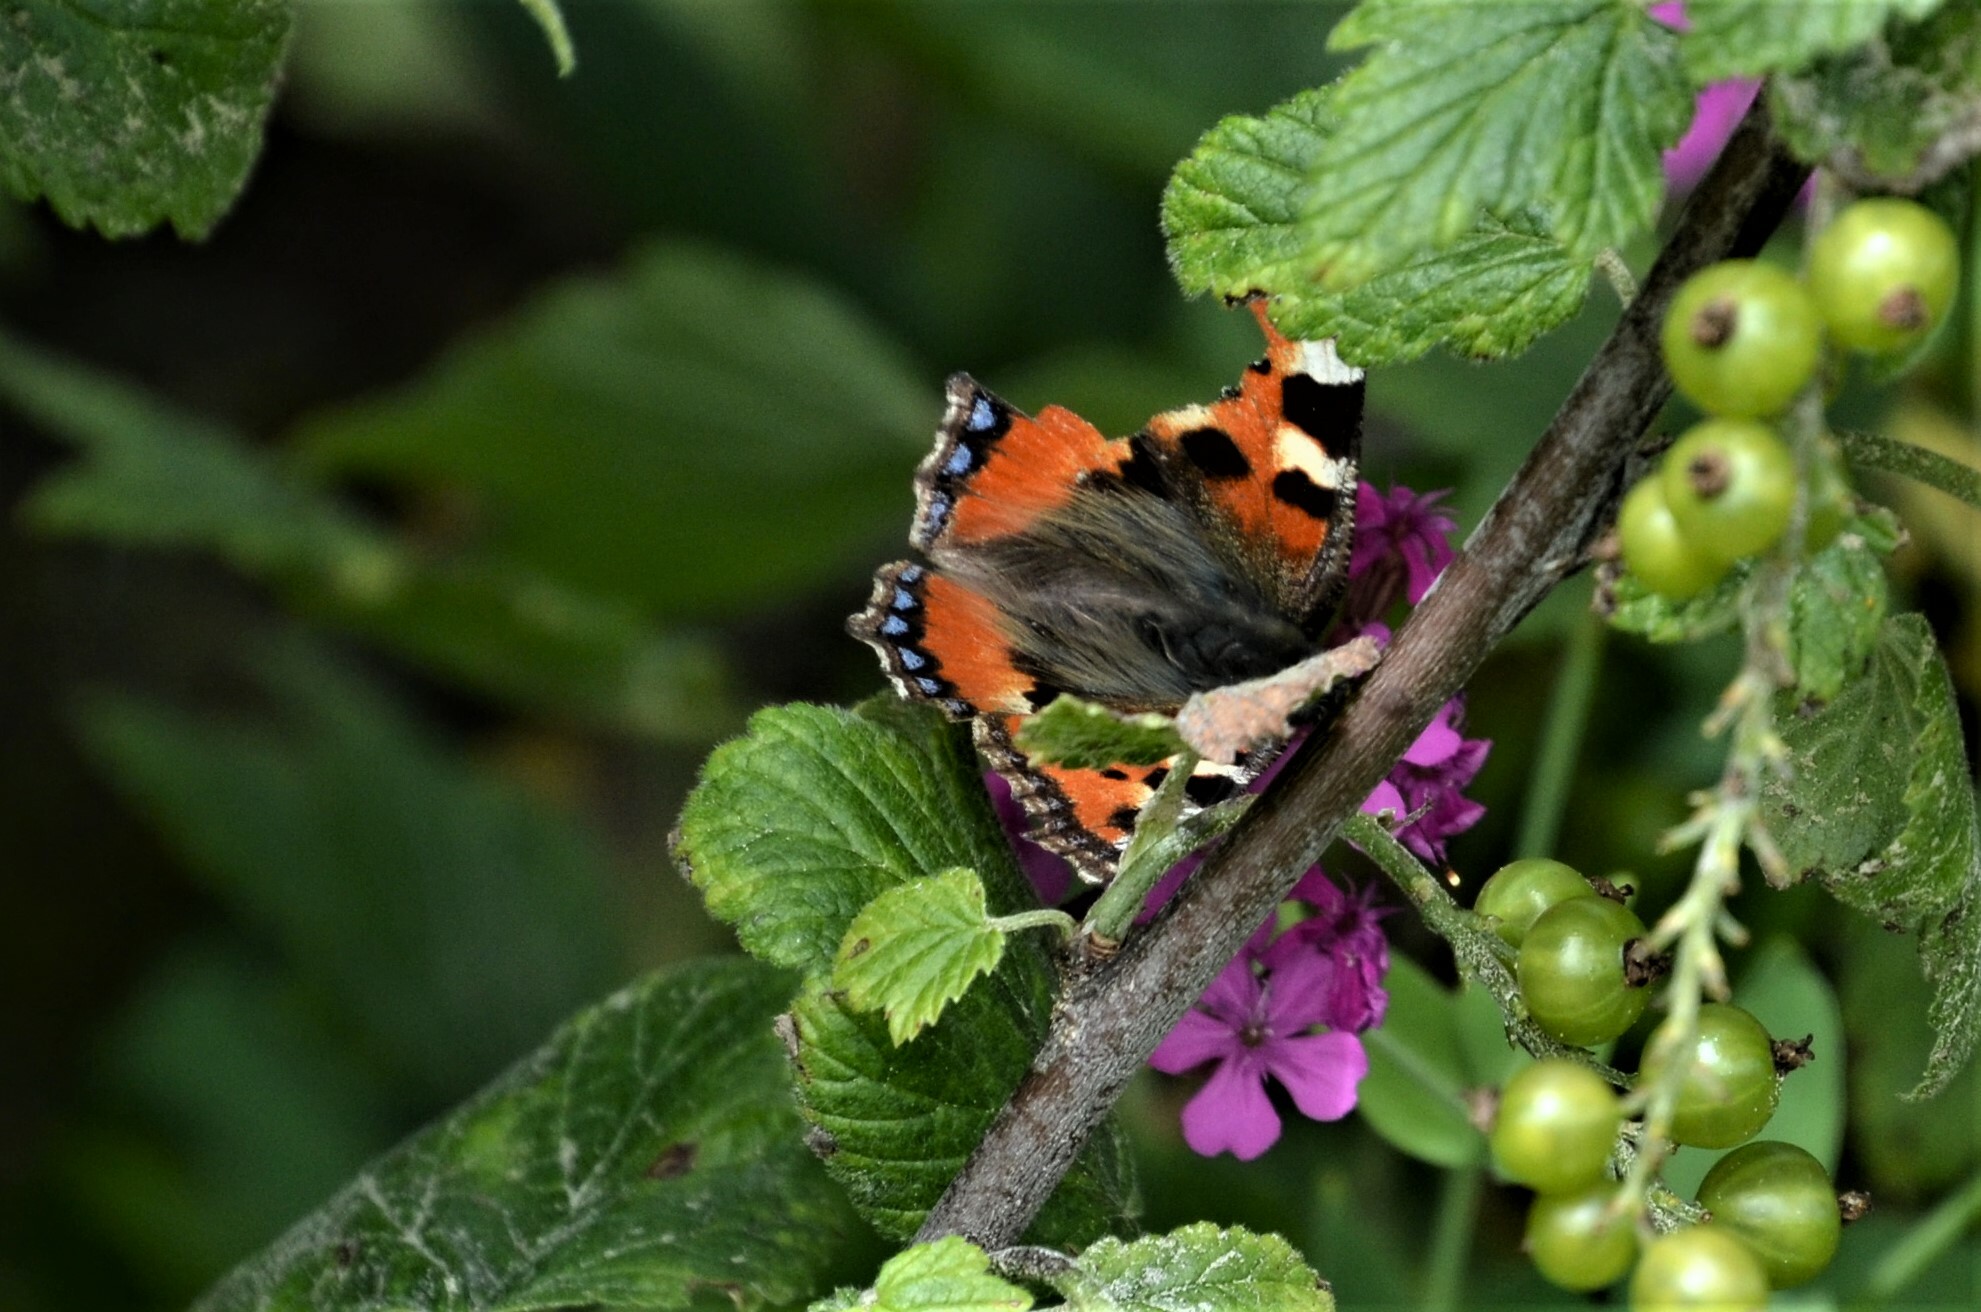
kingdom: Animalia
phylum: Arthropoda
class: Insecta
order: Lepidoptera
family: Nymphalidae
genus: Aglais
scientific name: Aglais urticae
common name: Small tortoiseshell
